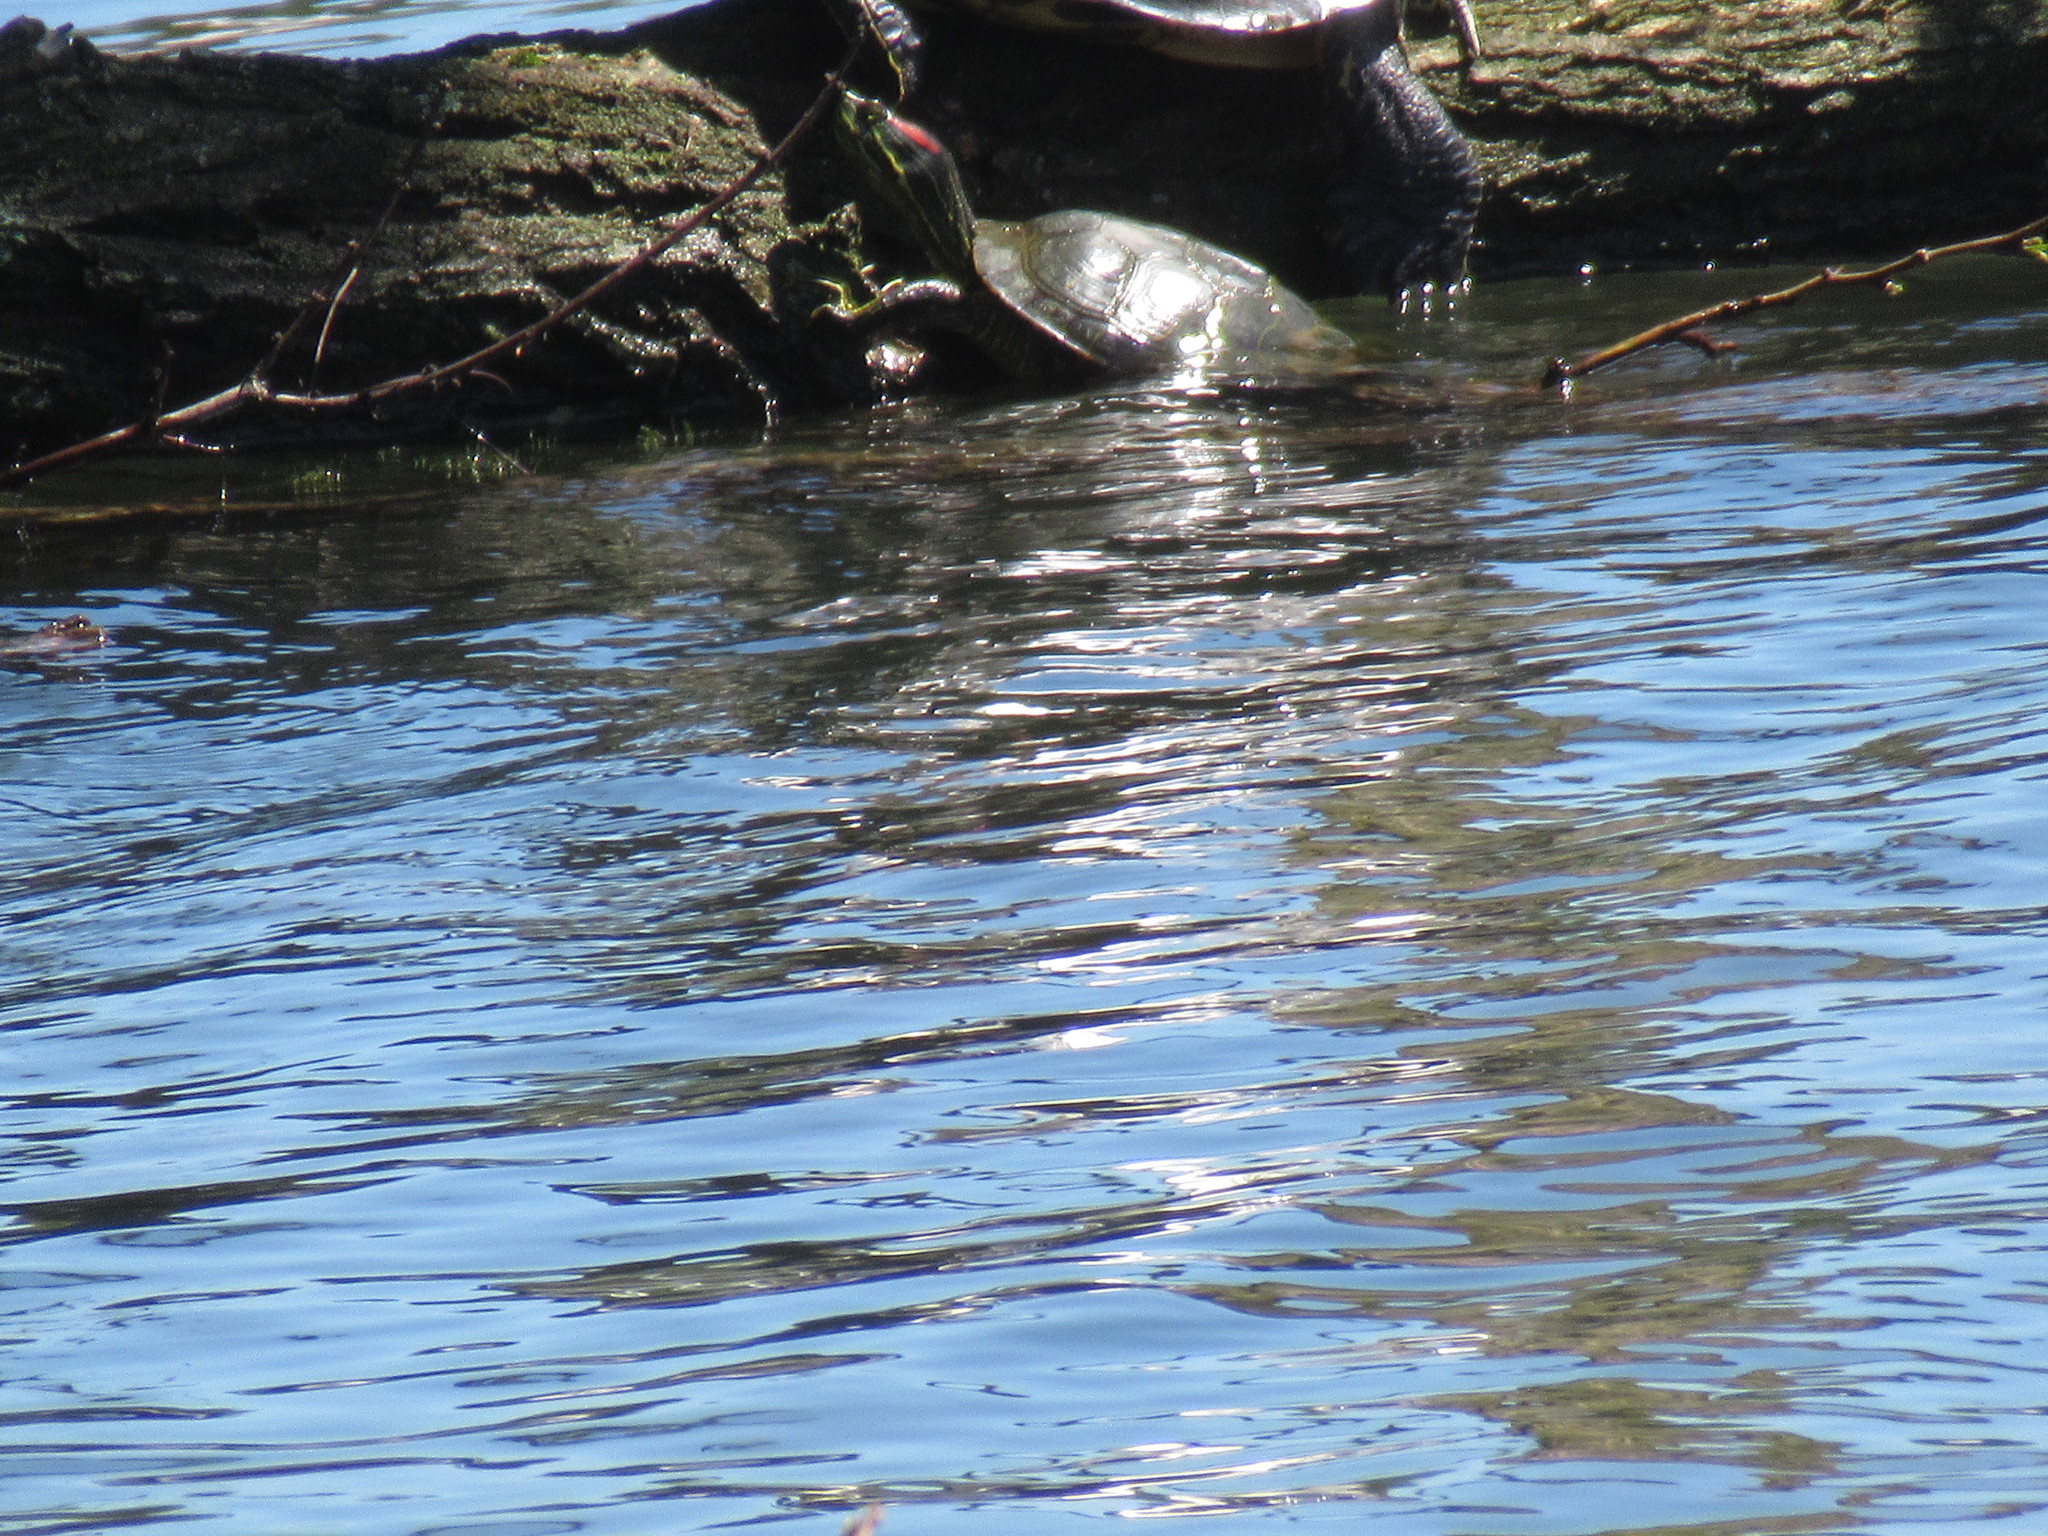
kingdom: Animalia
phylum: Chordata
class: Testudines
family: Emydidae
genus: Trachemys
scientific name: Trachemys scripta
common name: Slider
